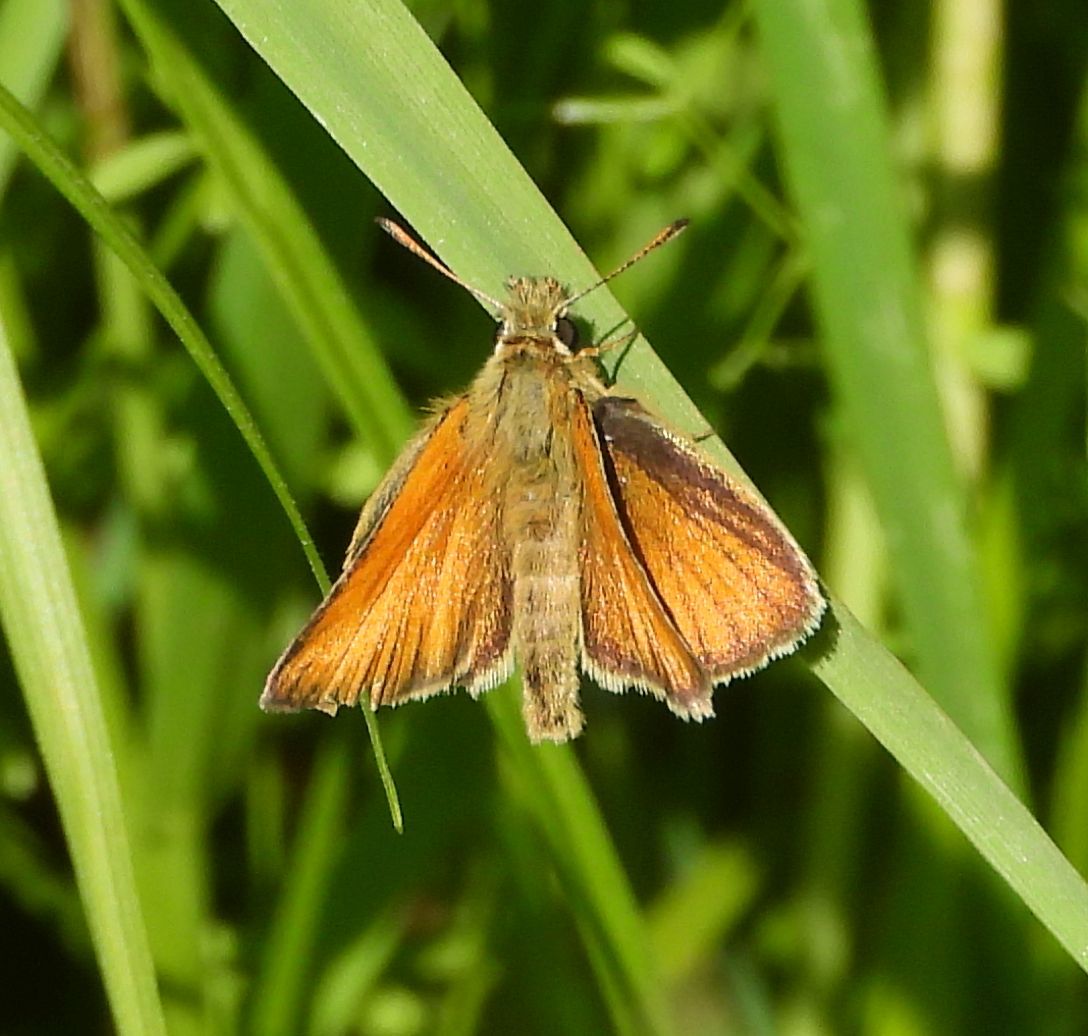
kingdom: Animalia
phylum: Arthropoda
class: Insecta
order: Lepidoptera
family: Hesperiidae
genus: Thymelicus
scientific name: Thymelicus lineola
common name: Essex skipper
